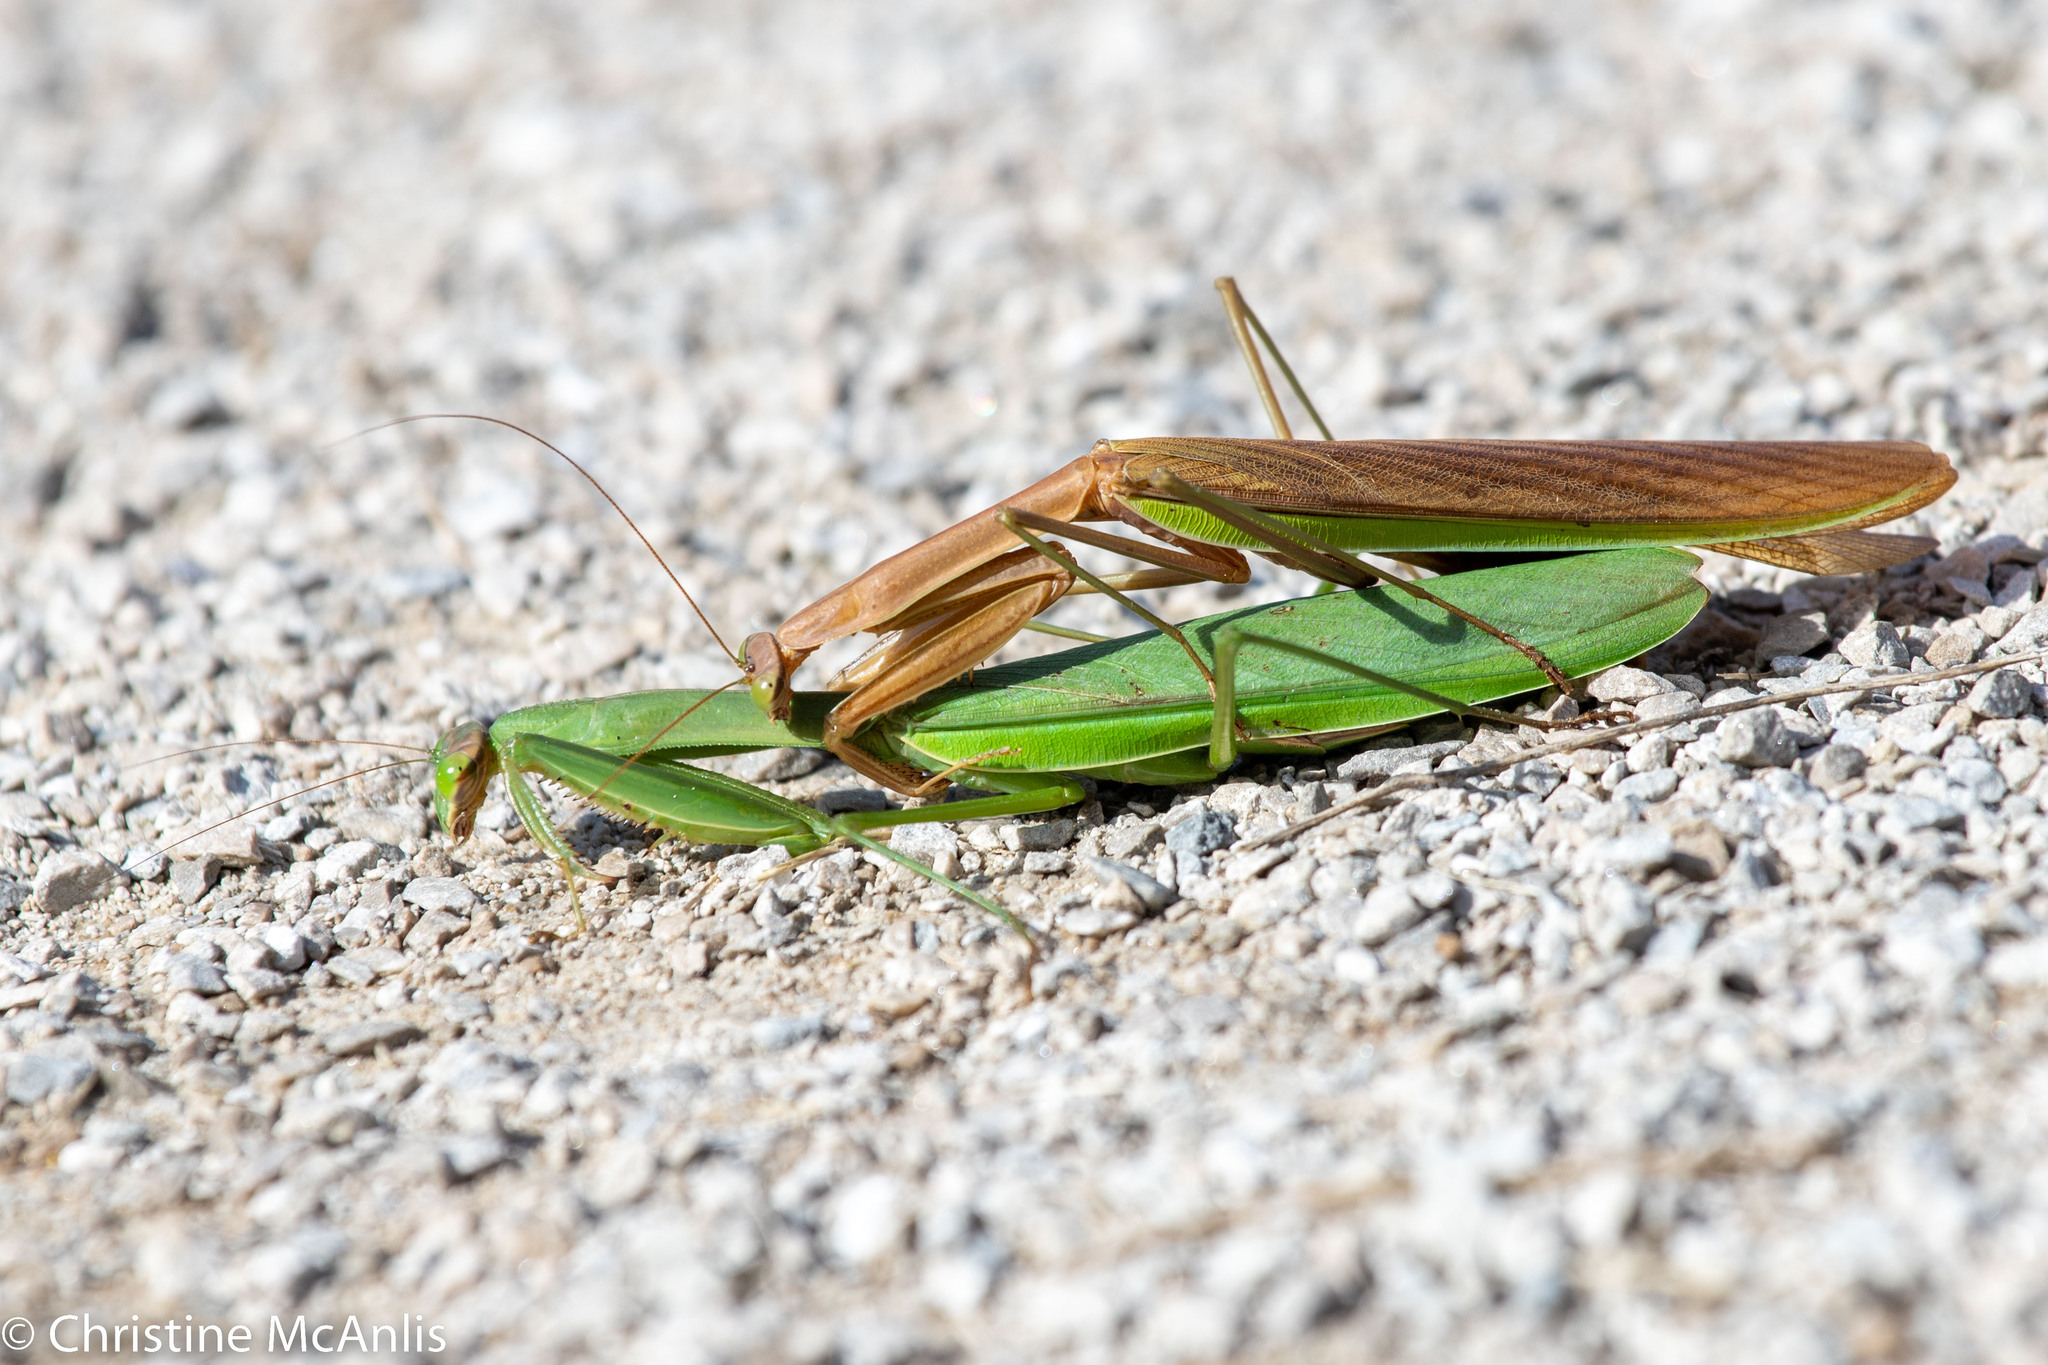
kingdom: Animalia
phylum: Arthropoda
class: Insecta
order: Mantodea
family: Mantidae
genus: Tenodera
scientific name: Tenodera sinensis
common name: Chinese mantis
